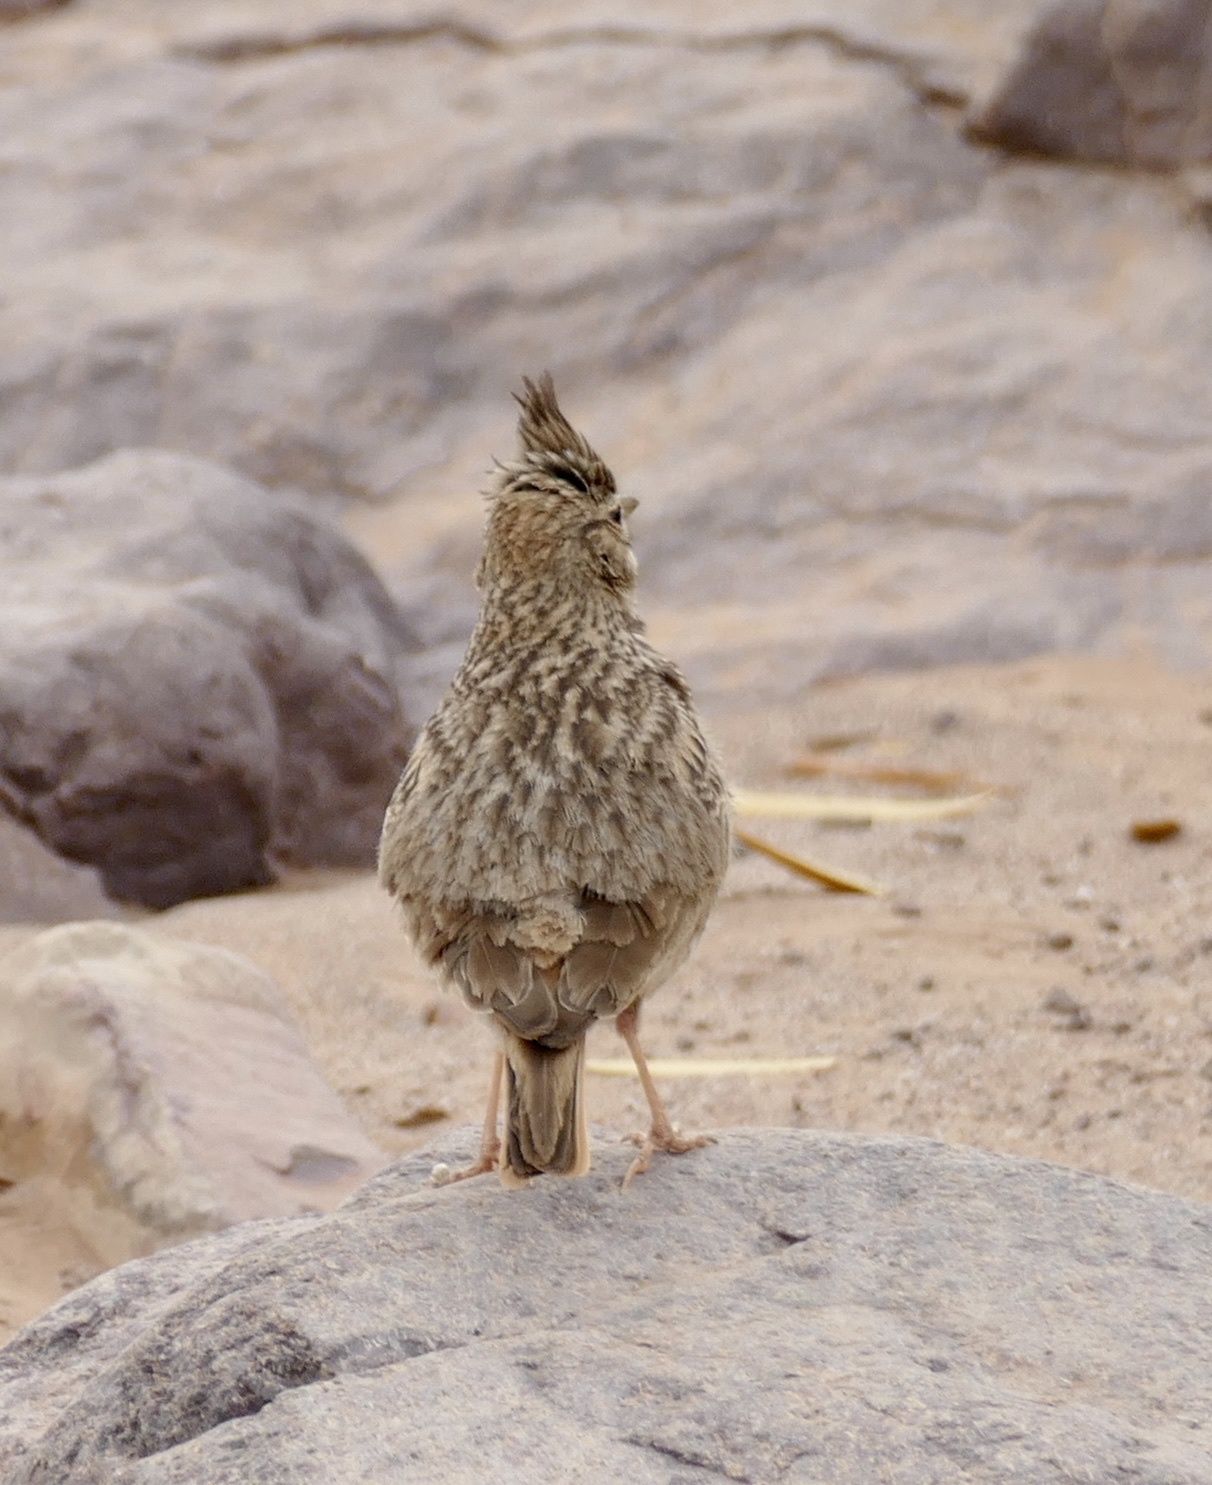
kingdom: Animalia
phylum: Chordata
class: Aves
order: Passeriformes
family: Alaudidae
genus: Galerida
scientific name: Galerida theklae
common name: Thekla lark
